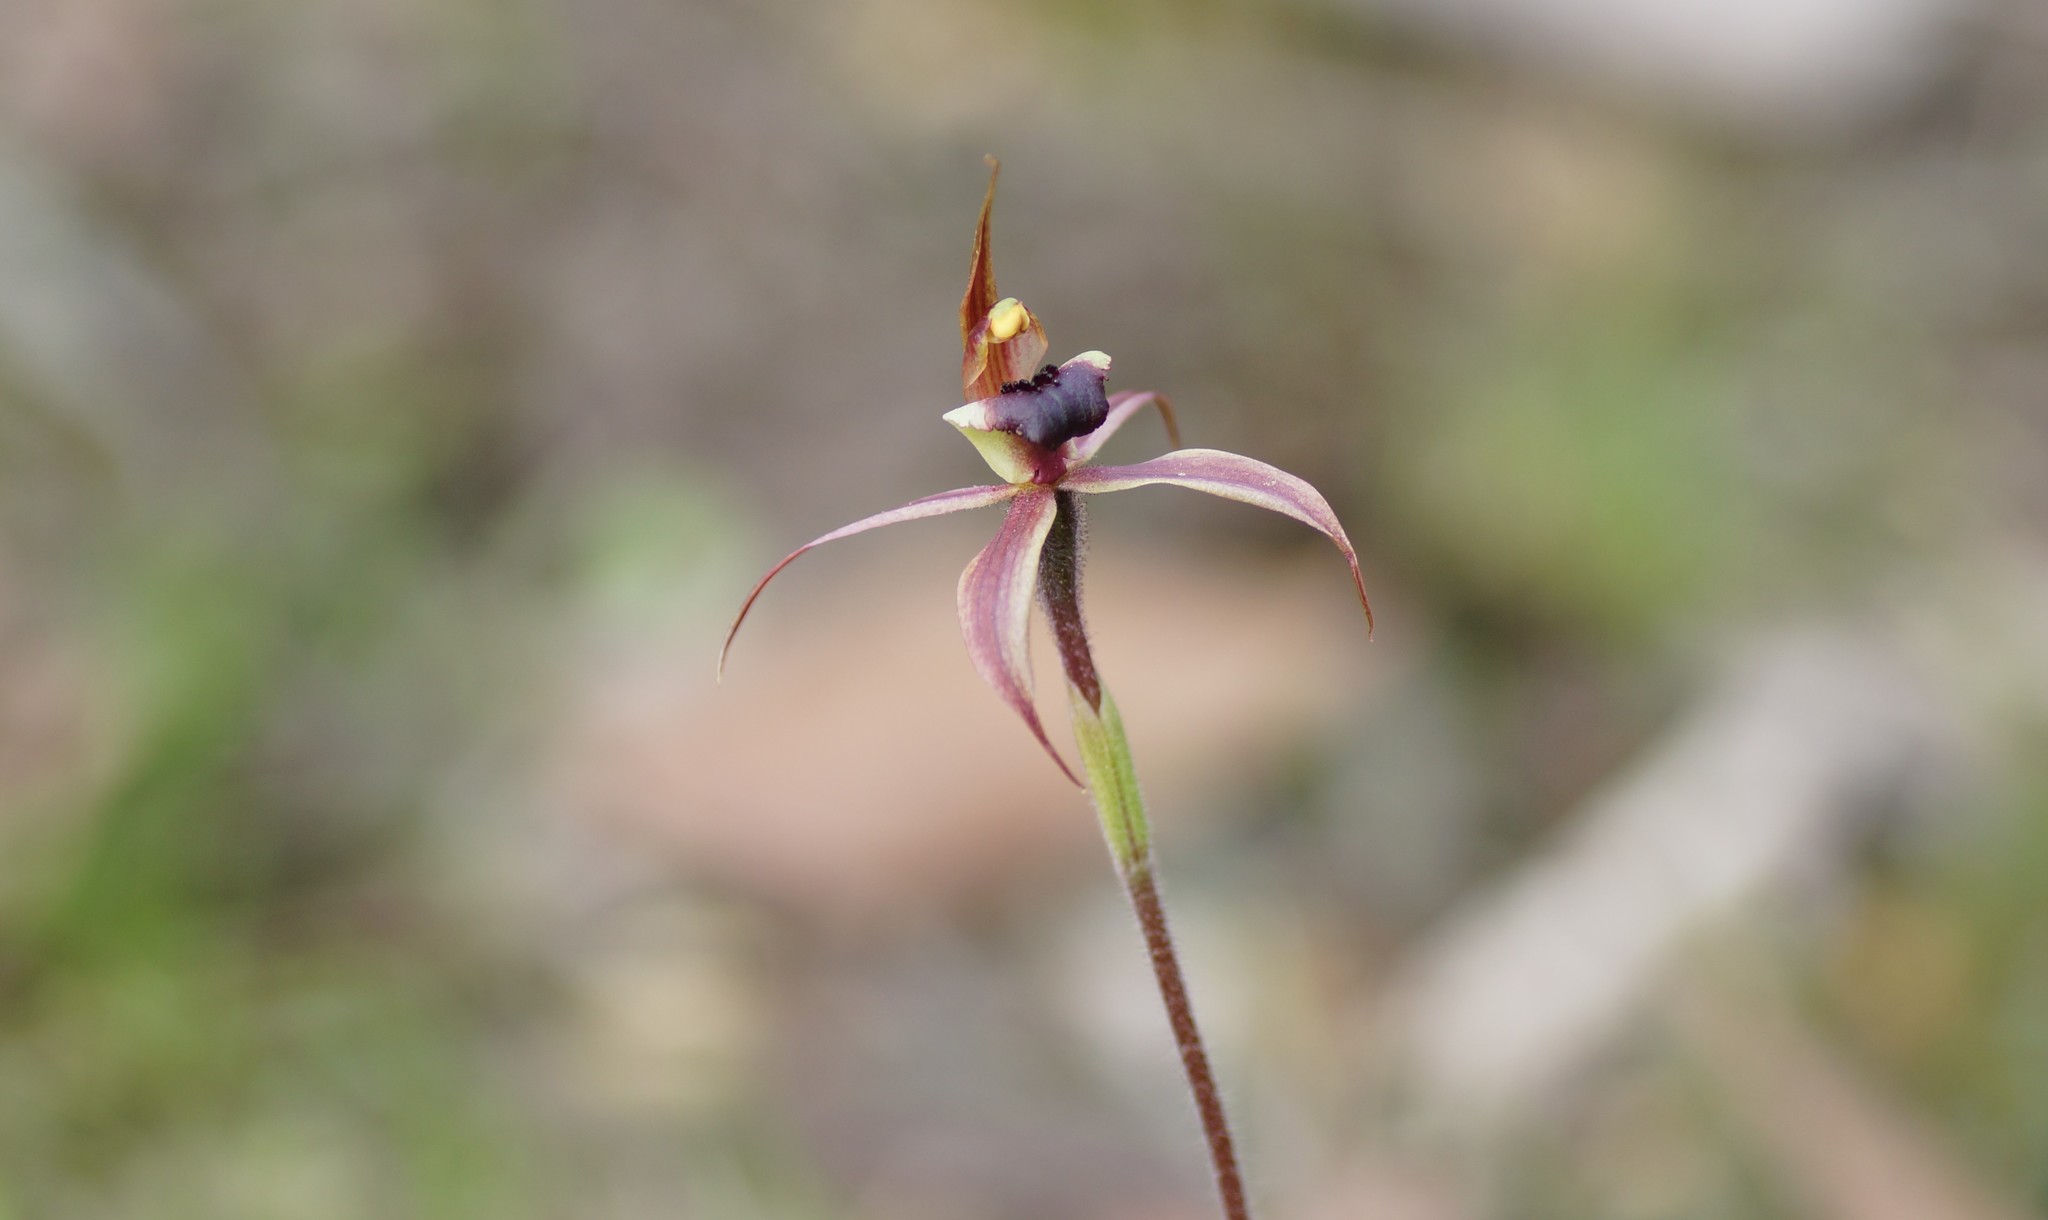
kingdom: Plantae
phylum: Tracheophyta
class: Liliopsida
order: Asparagales
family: Orchidaceae
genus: Caladenia
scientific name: Caladenia clavigera
